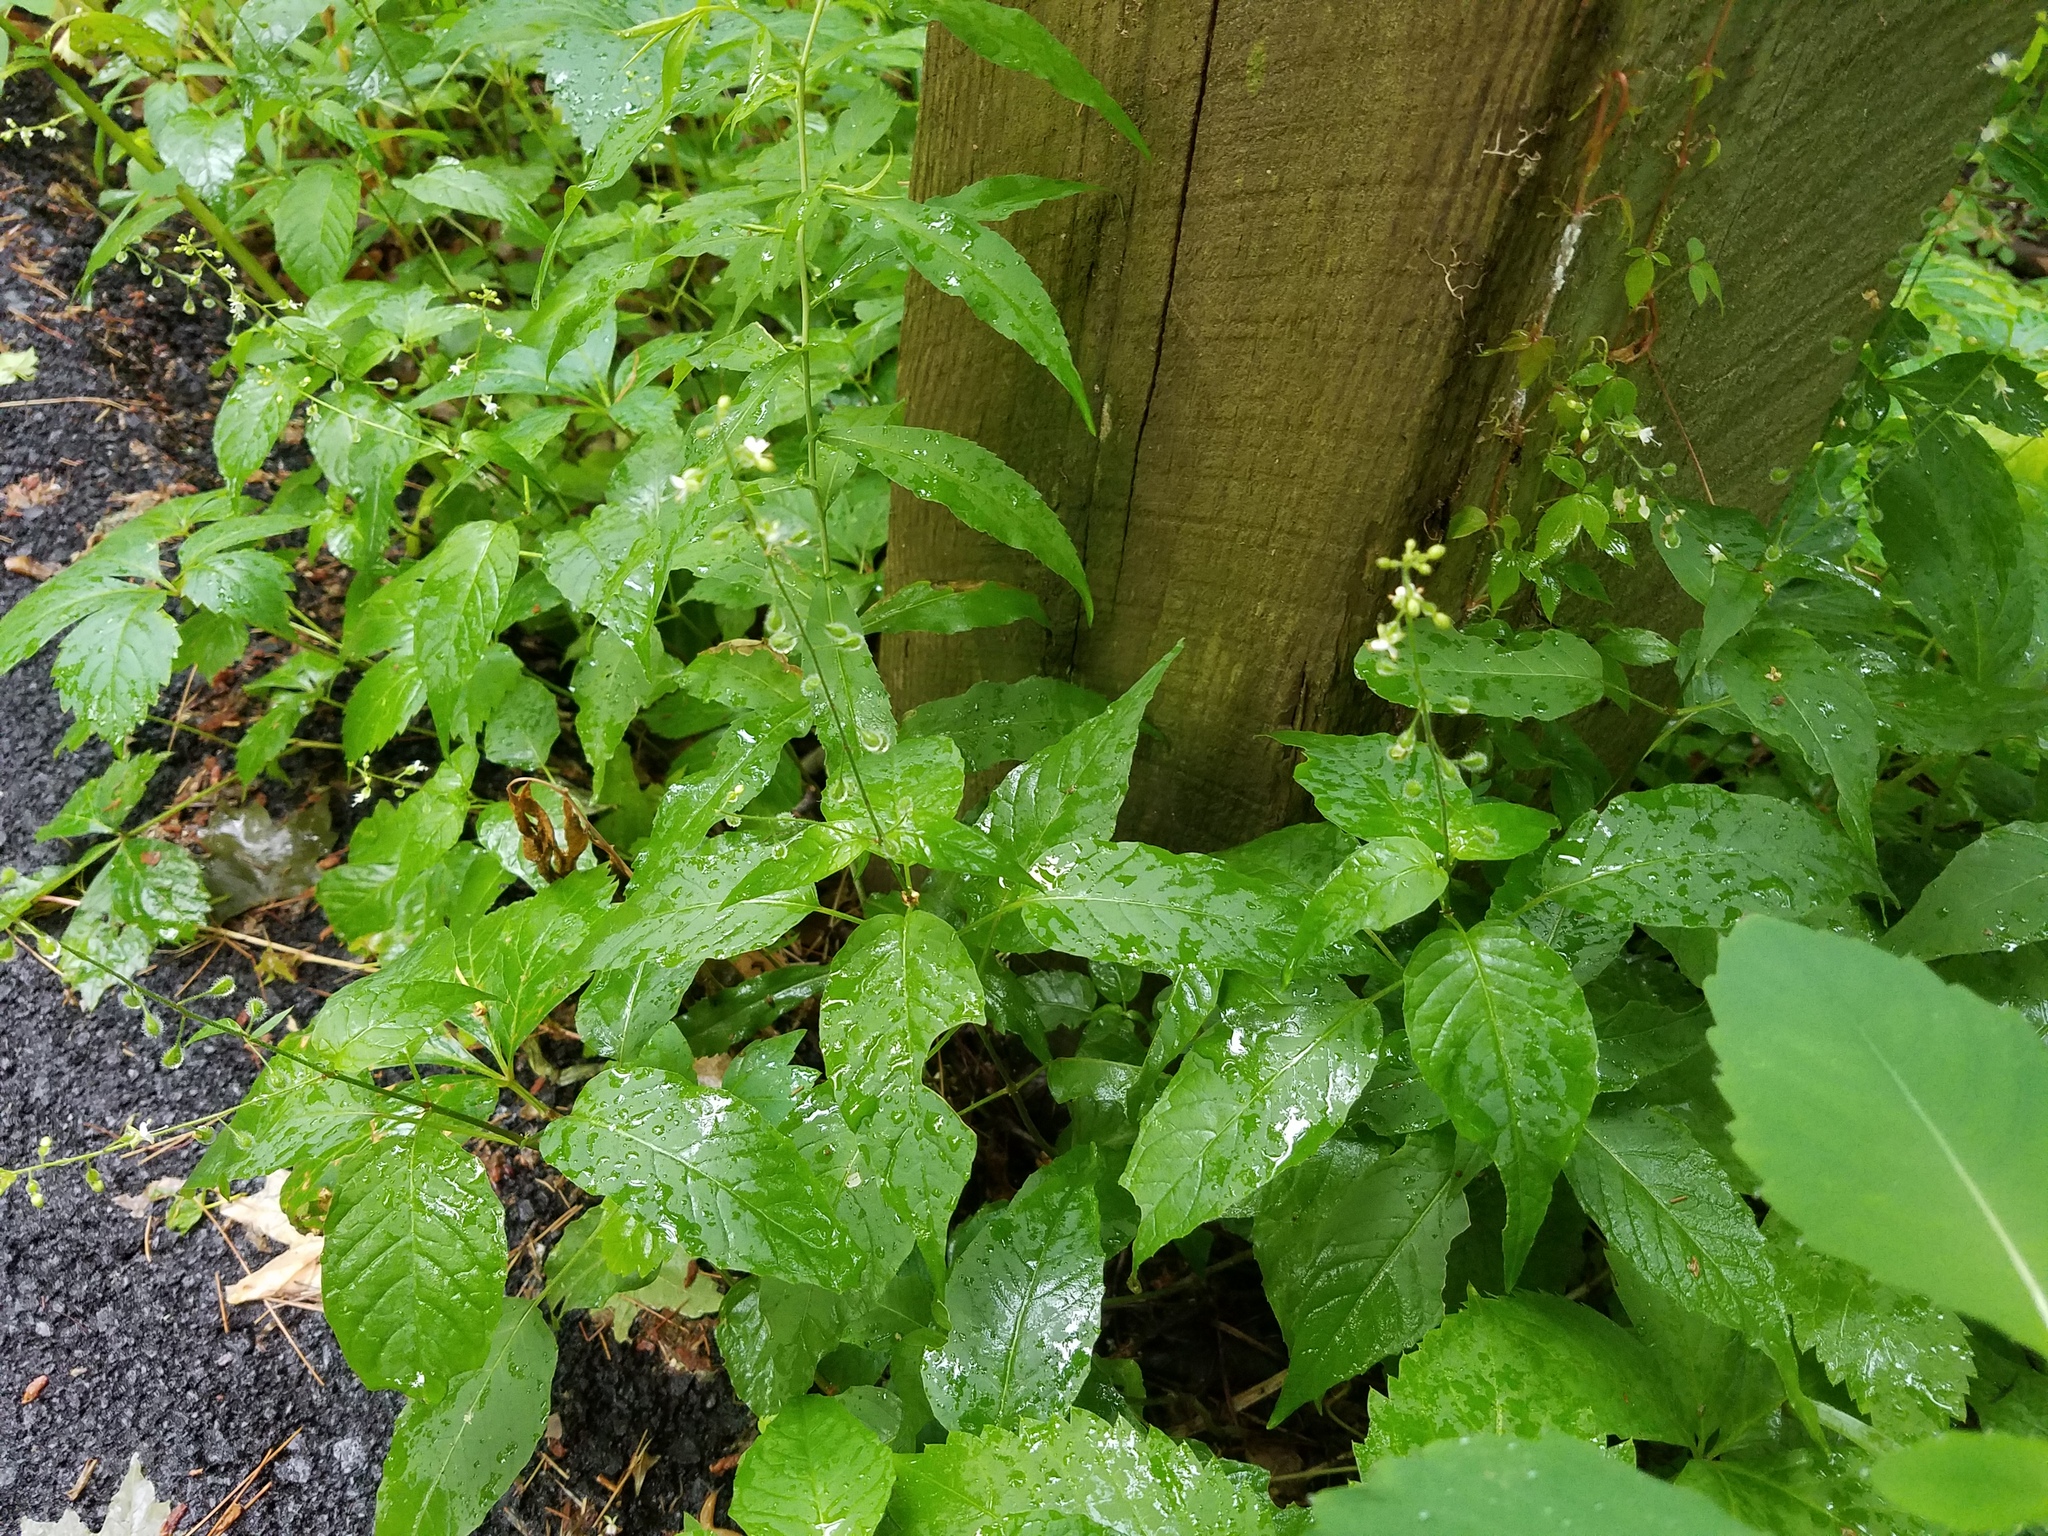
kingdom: Plantae
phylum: Tracheophyta
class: Magnoliopsida
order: Myrtales
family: Onagraceae
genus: Circaea
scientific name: Circaea canadensis
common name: Broad-leaved enchanter's nightshade
